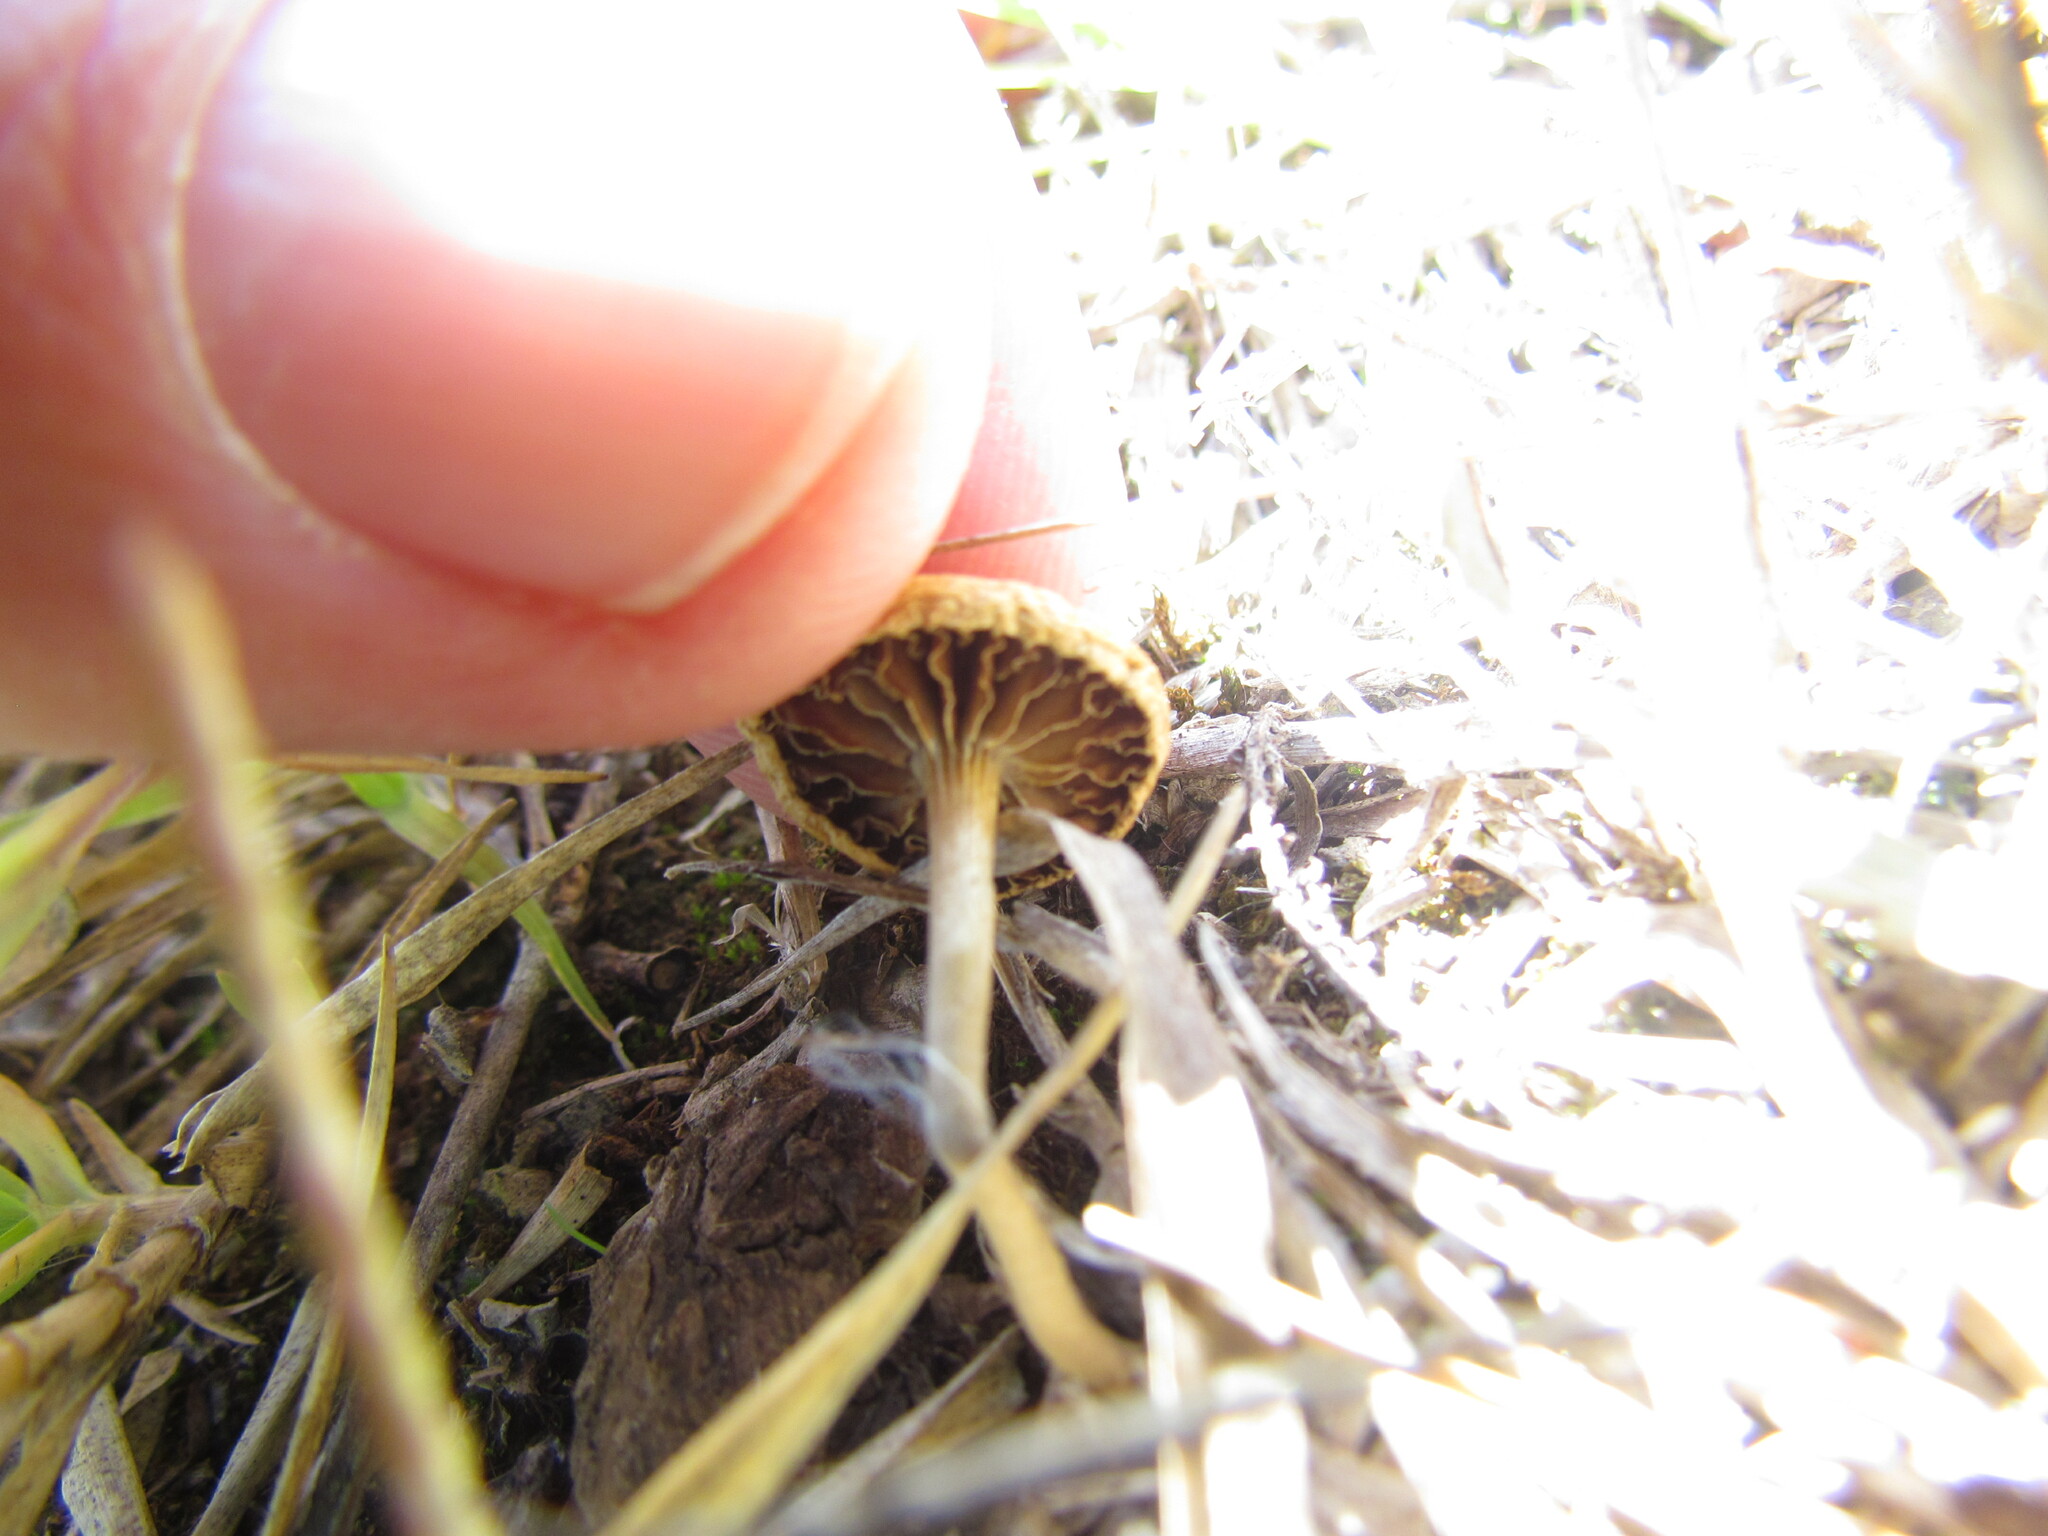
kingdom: Fungi
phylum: Basidiomycota
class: Agaricomycetes
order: Agaricales
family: Strophariaceae
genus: Agrocybe
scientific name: Agrocybe pediades
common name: Common fieldcap
